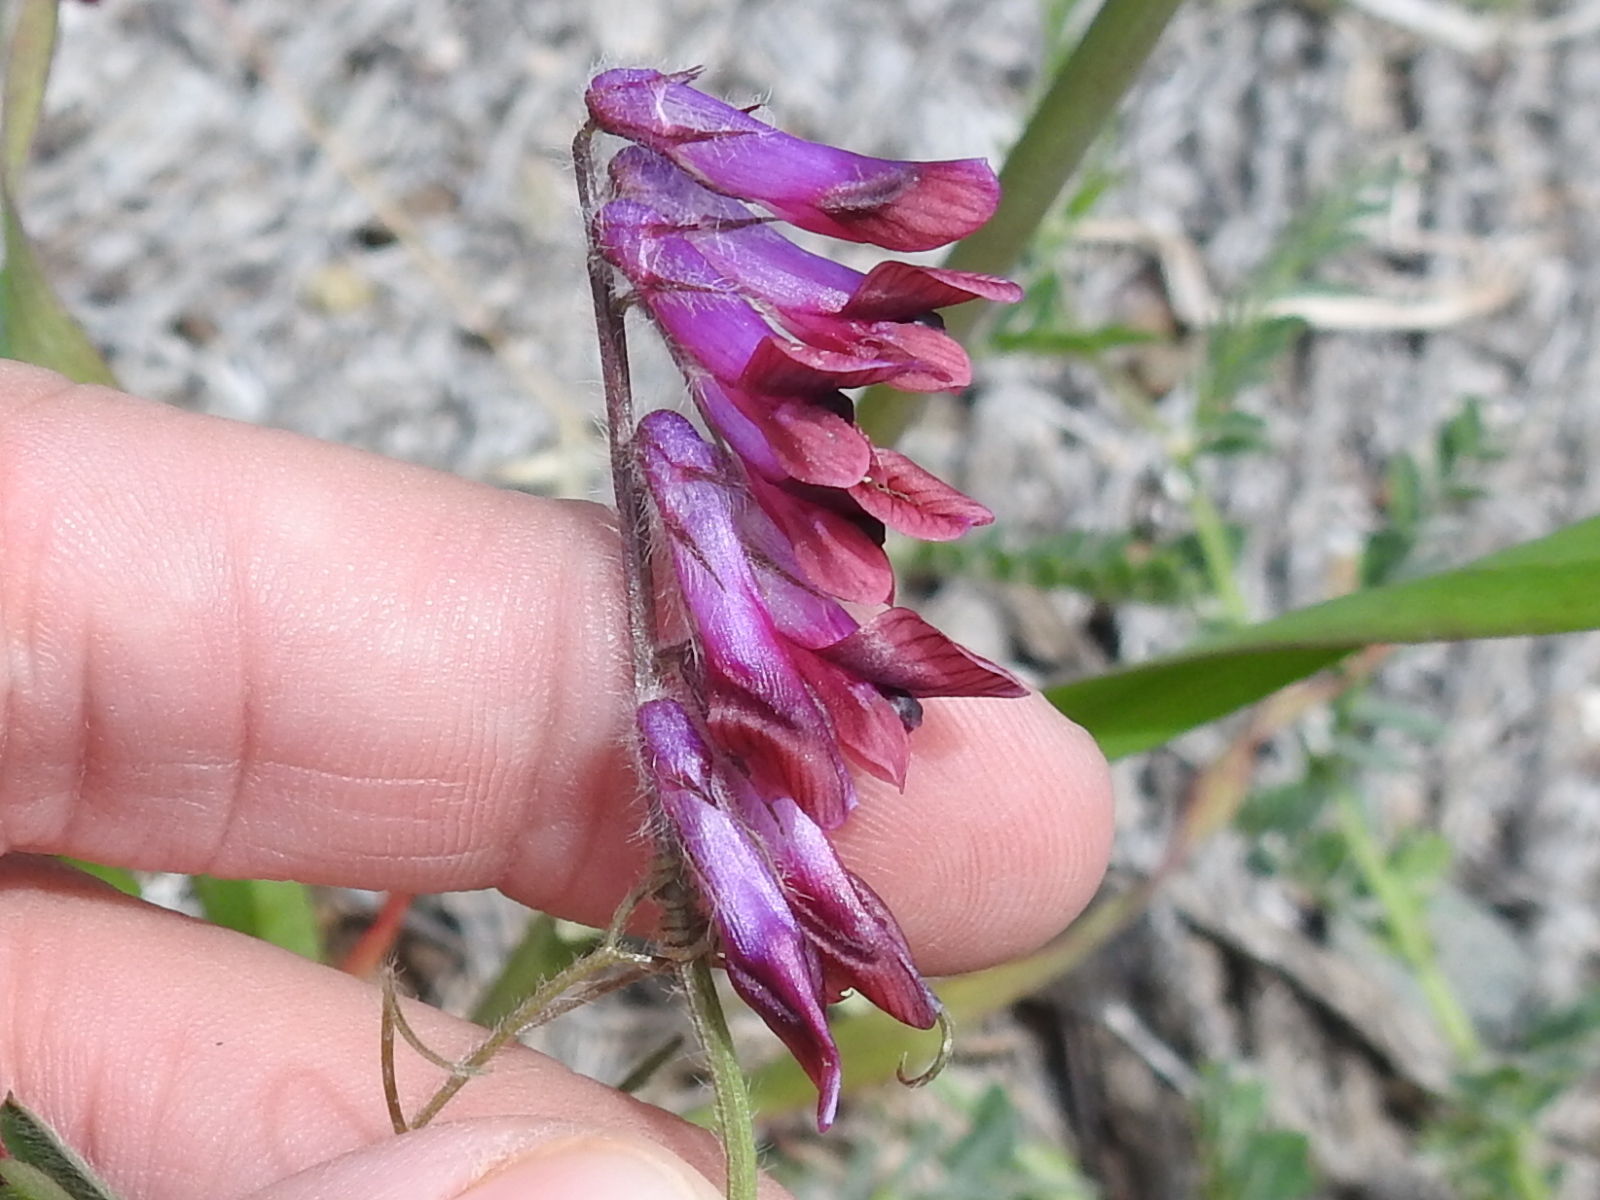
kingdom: Plantae
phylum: Tracheophyta
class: Magnoliopsida
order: Fabales
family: Fabaceae
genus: Vicia
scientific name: Vicia benghalensis
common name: Purple vetch
